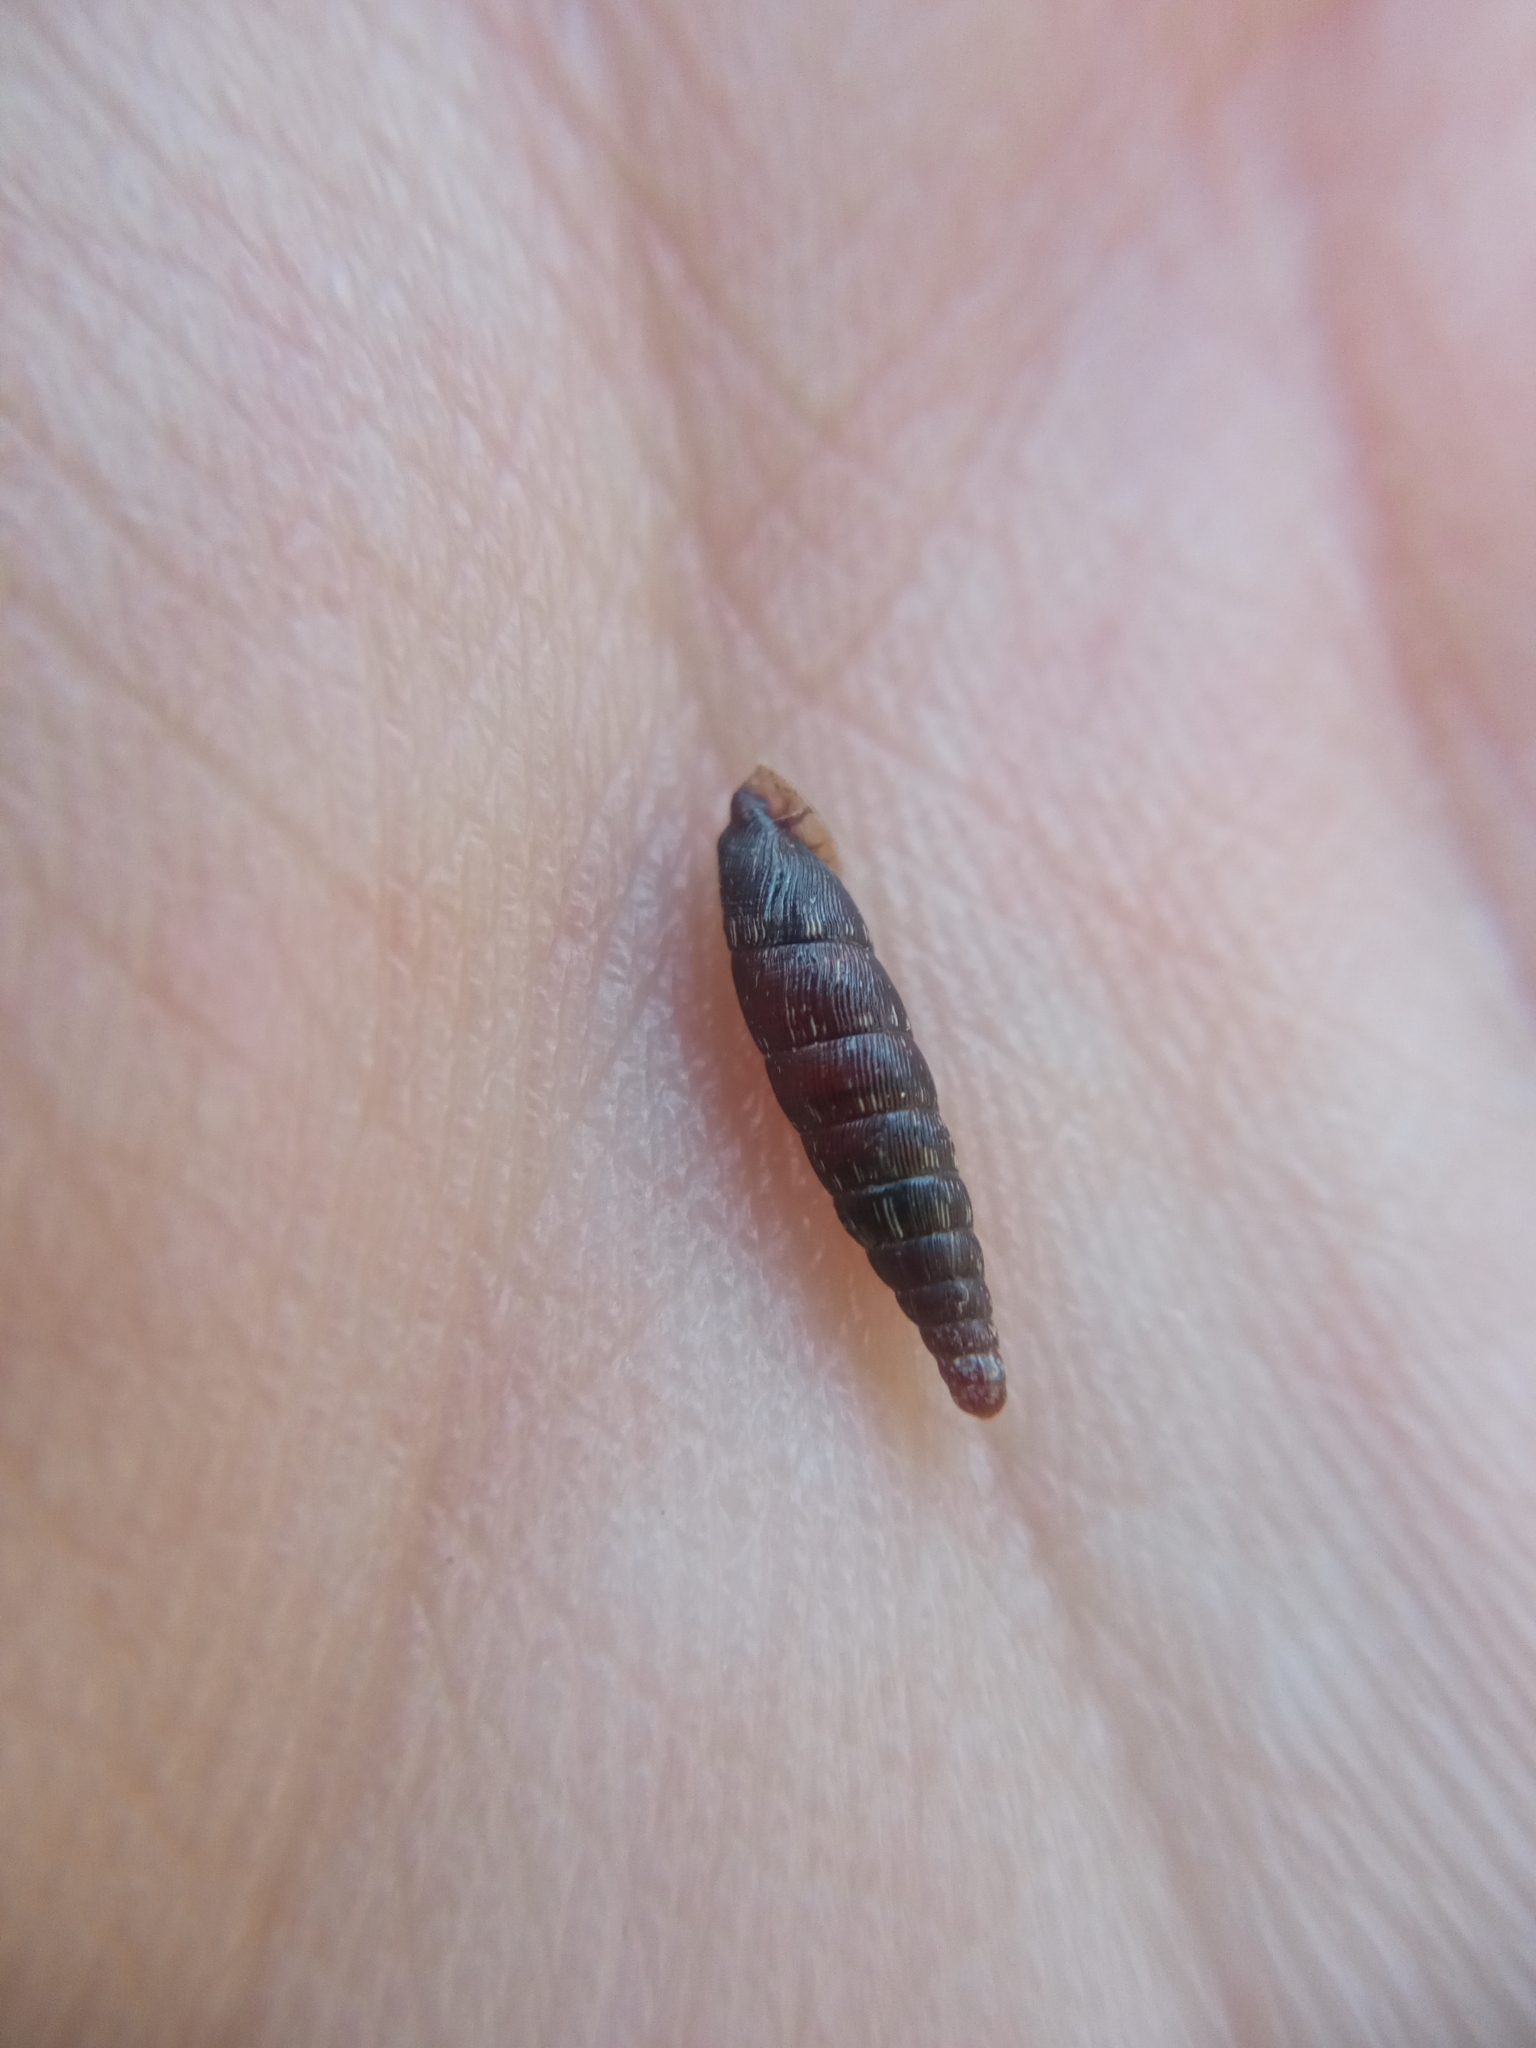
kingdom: Animalia
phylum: Mollusca
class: Gastropoda
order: Stylommatophora
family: Clausiliidae
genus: Clausilia
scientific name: Clausilia bidentata
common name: Two-toothed door snail
